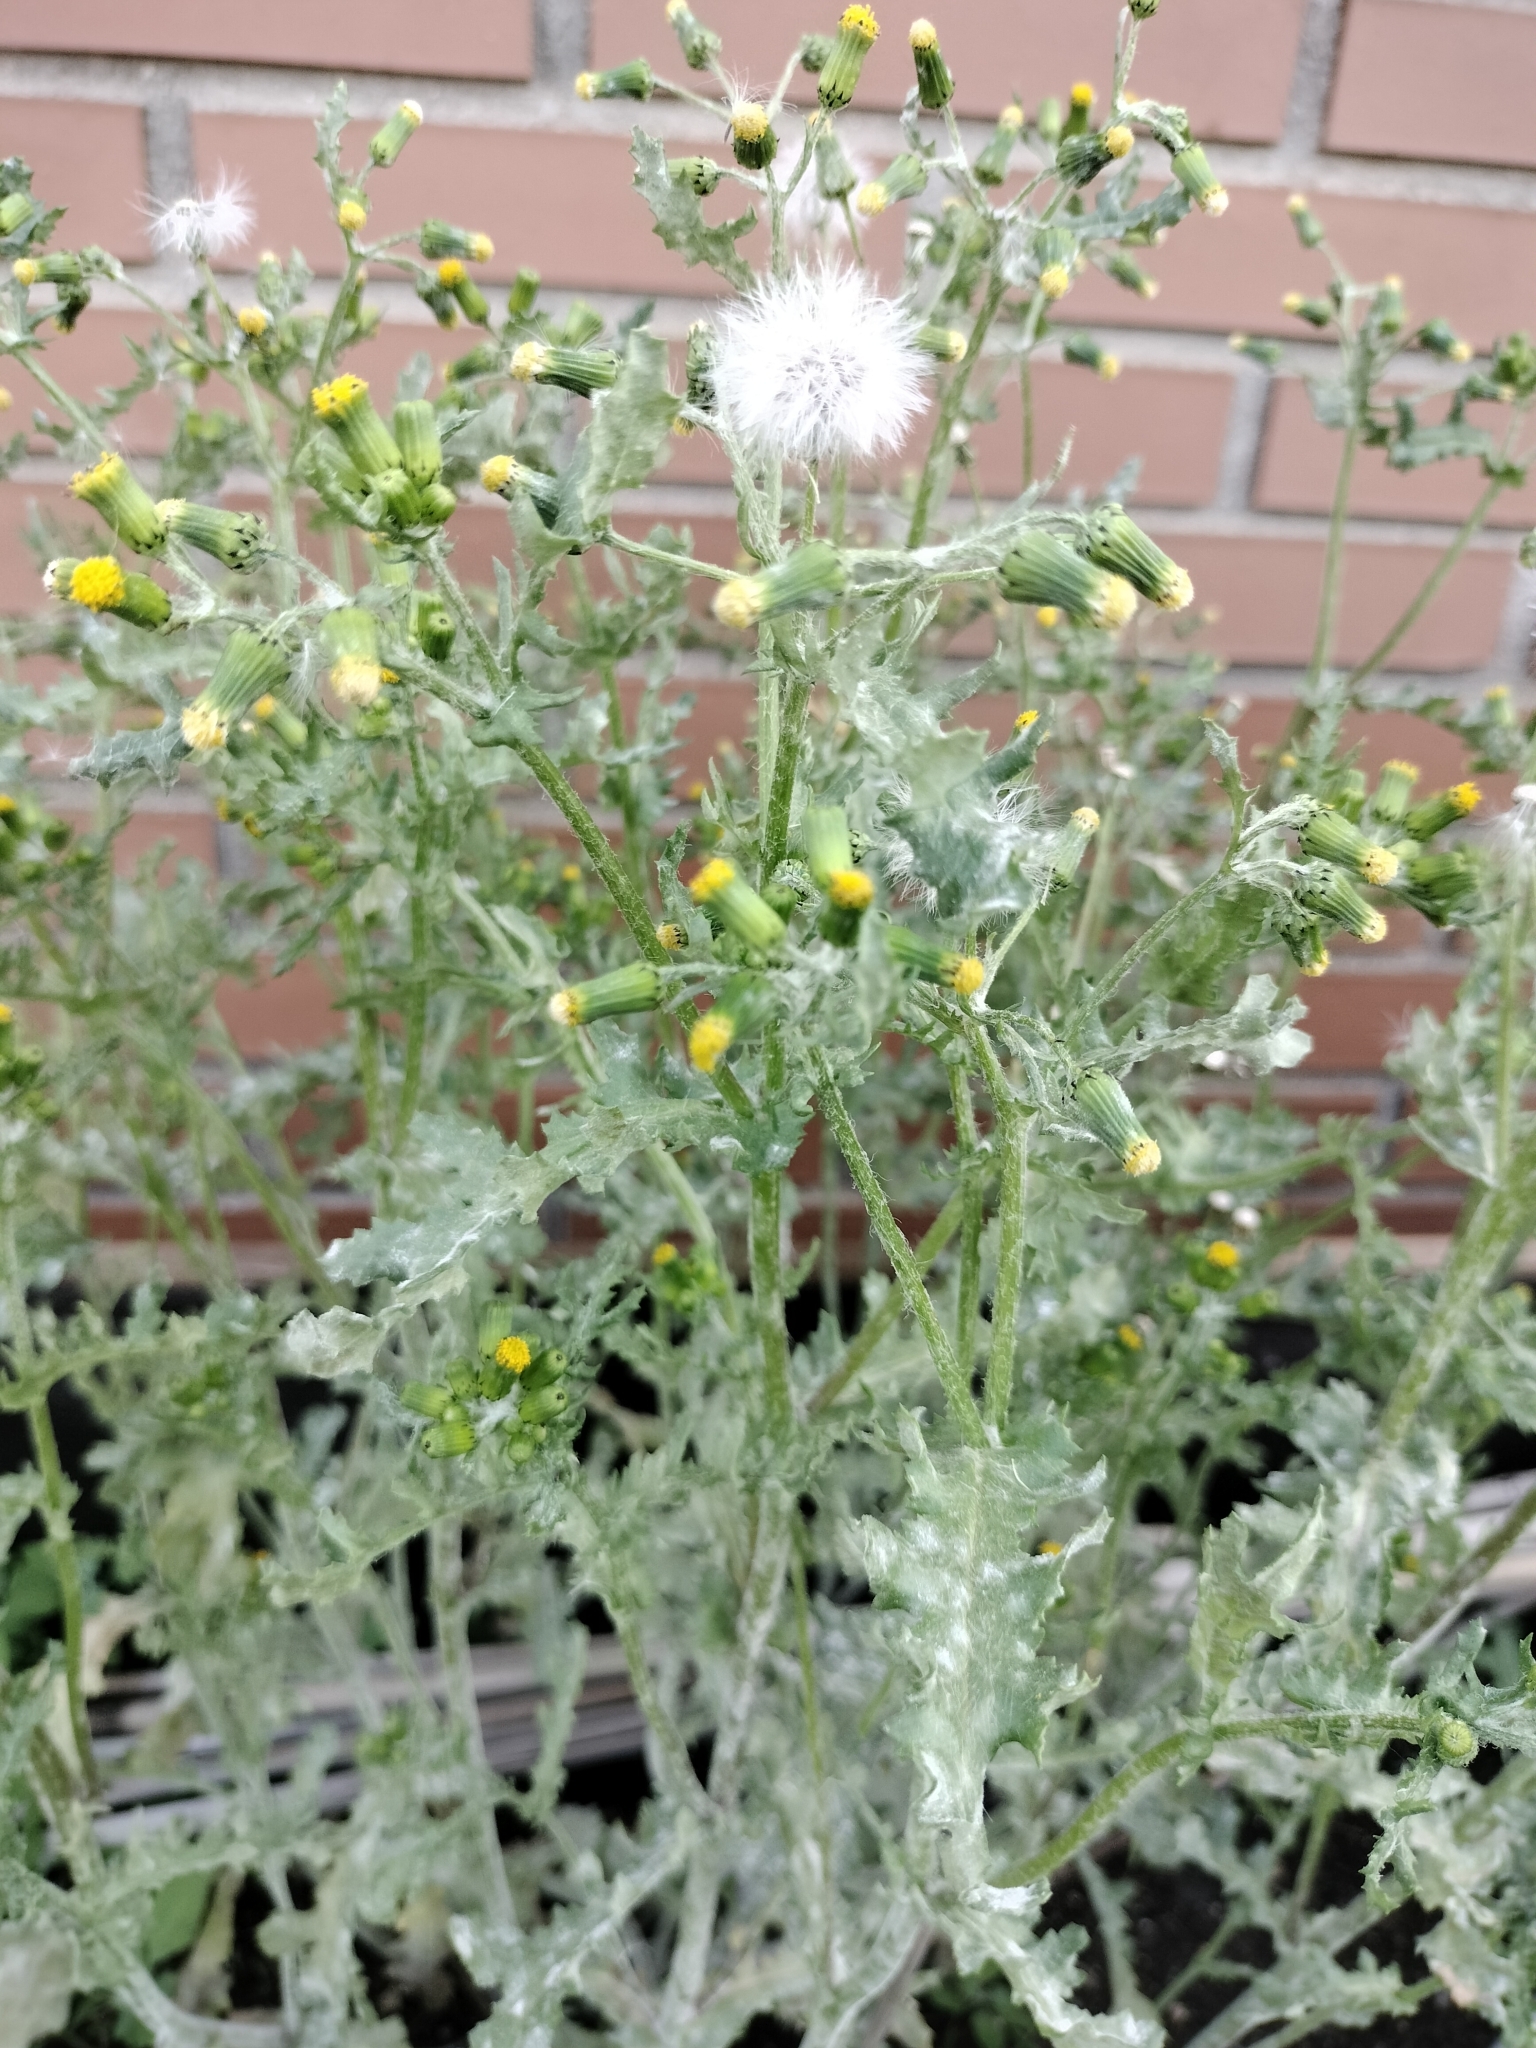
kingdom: Plantae
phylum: Tracheophyta
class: Magnoliopsida
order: Asterales
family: Asteraceae
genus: Senecio
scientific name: Senecio vulgaris
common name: Old-man-in-the-spring
